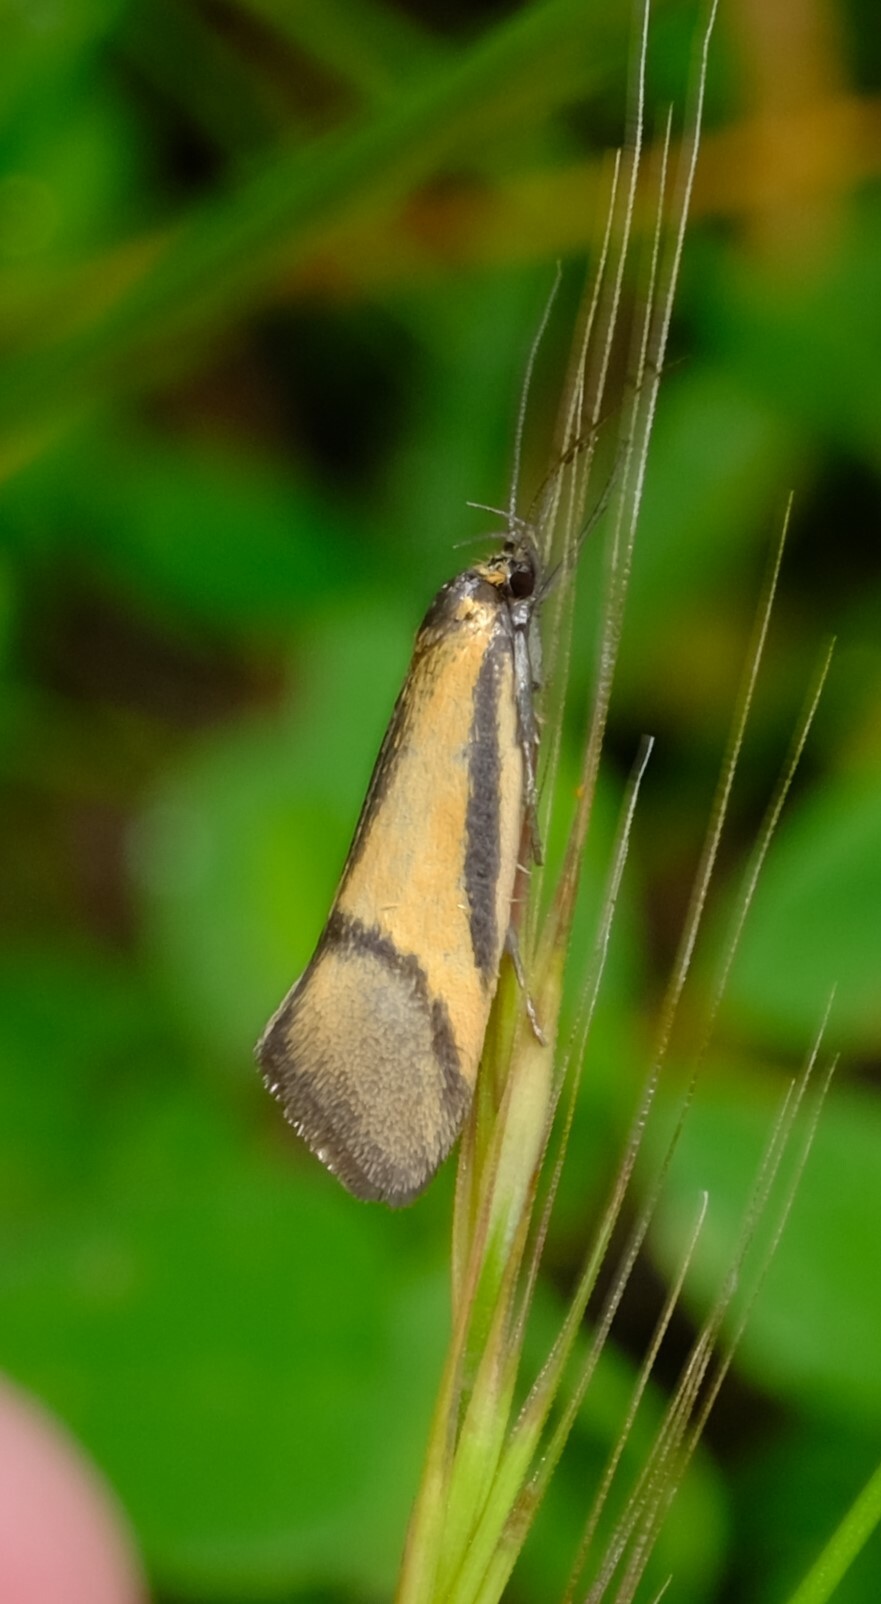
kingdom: Animalia
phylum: Arthropoda
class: Insecta
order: Lepidoptera
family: Oecophoridae
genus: Philobota
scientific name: Philobota arabella
